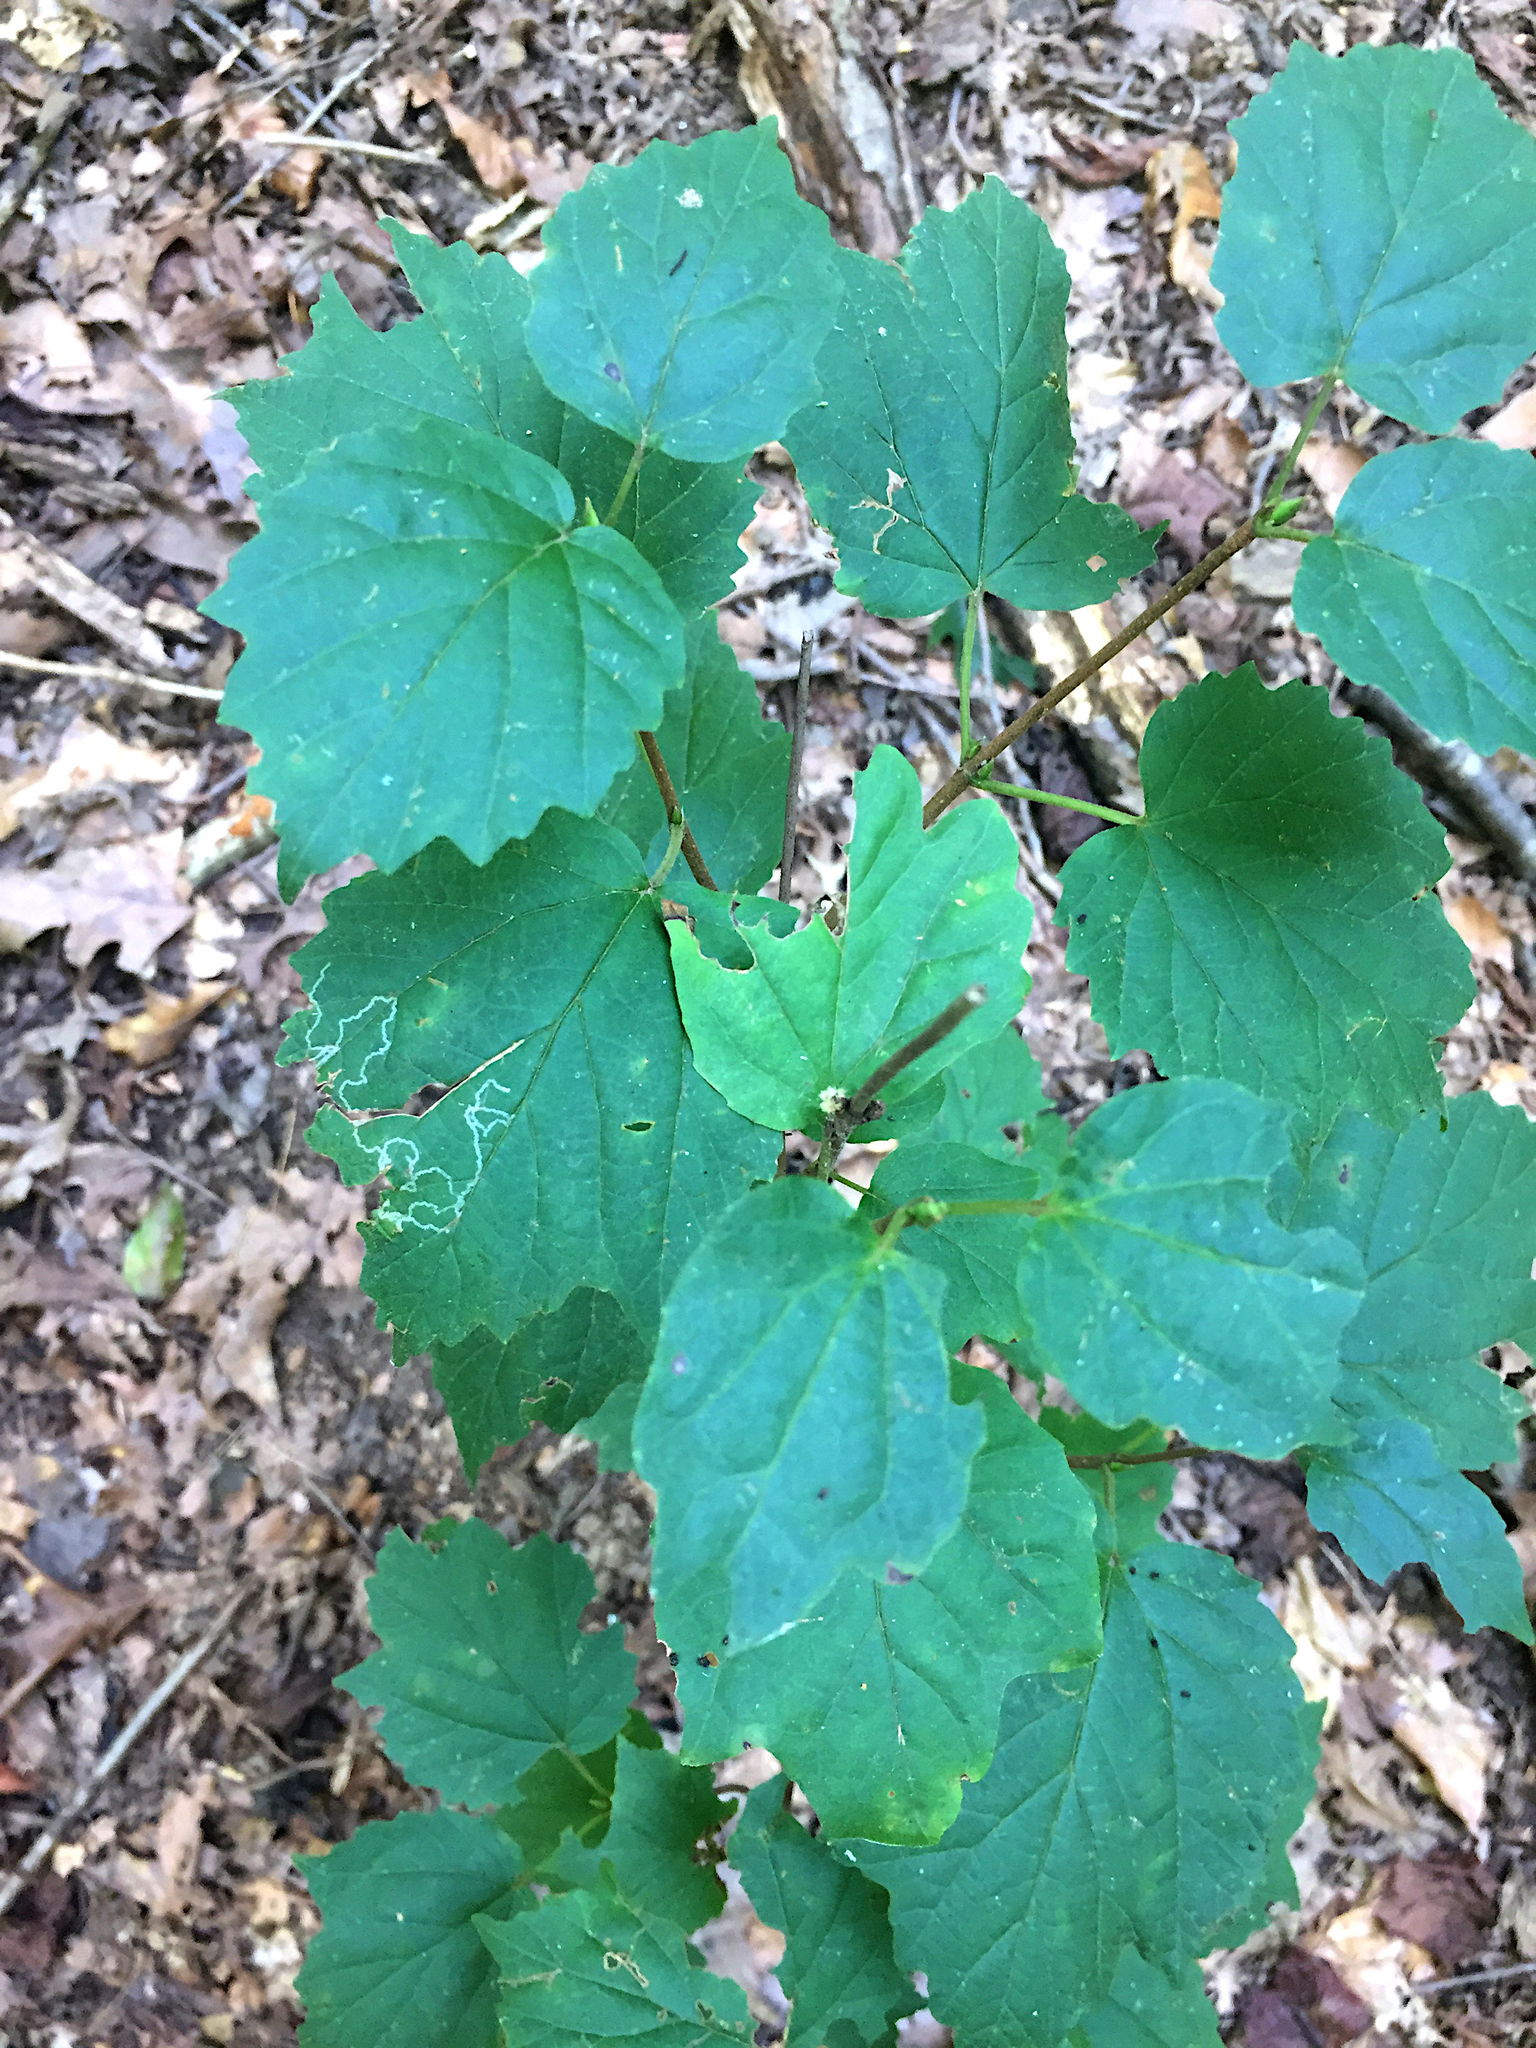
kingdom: Animalia
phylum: Arthropoda
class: Insecta
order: Lepidoptera
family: Gracillariidae
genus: Marmara
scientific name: Marmara viburnella
